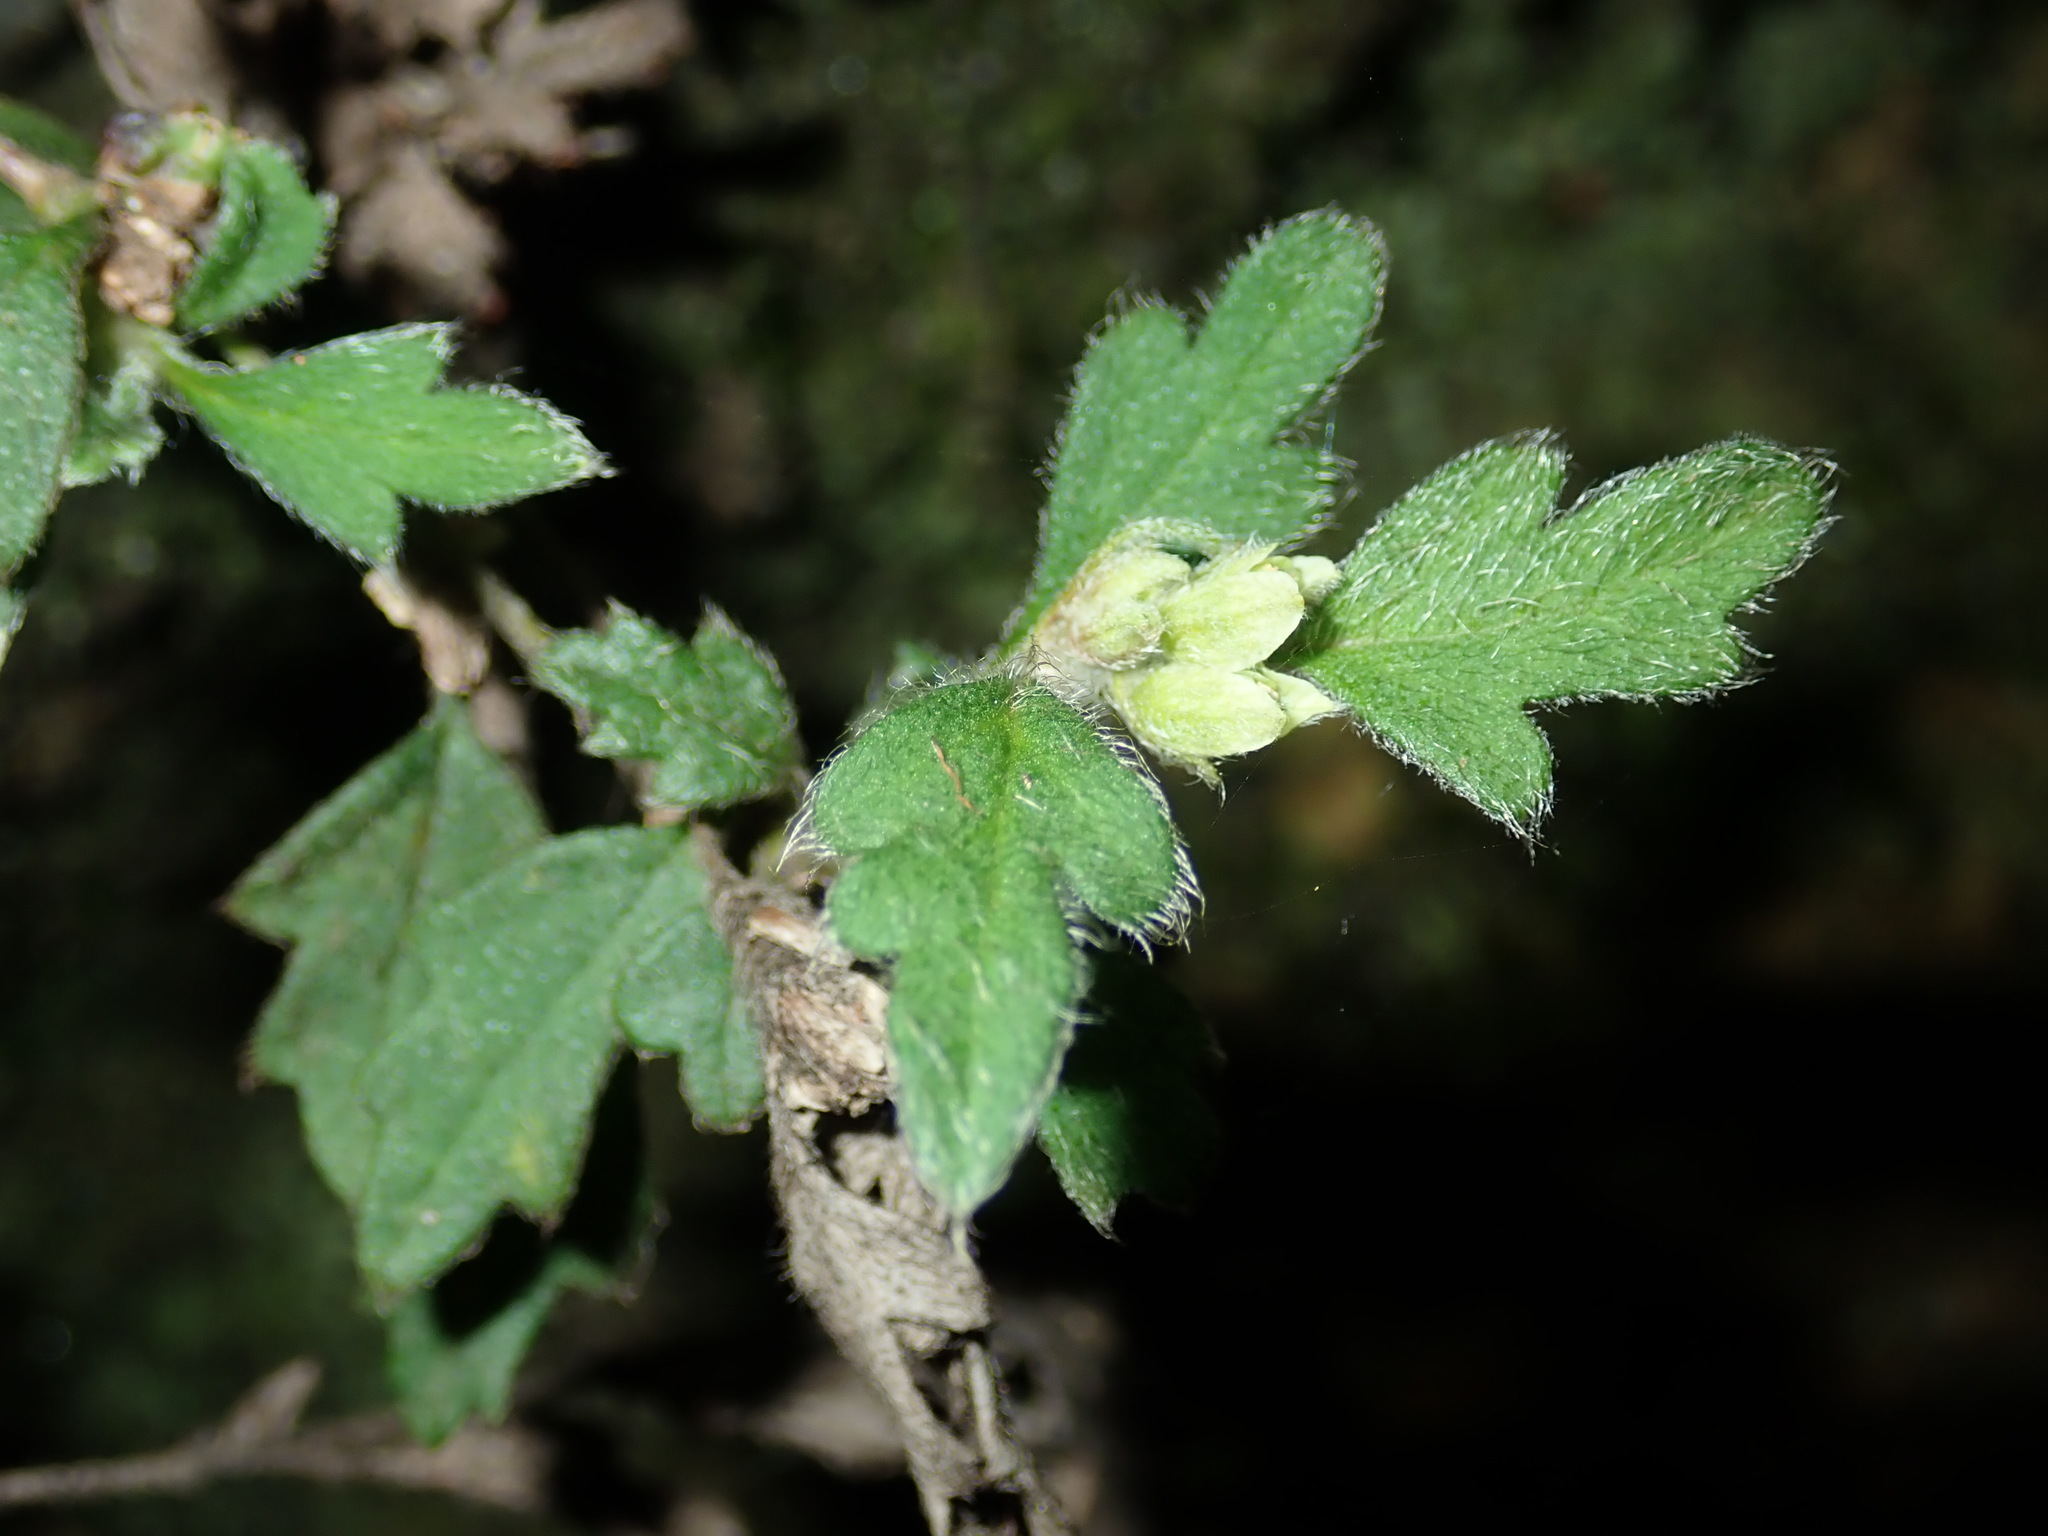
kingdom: Plantae
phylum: Tracheophyta
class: Magnoliopsida
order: Apiales
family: Apiaceae
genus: Xanthosia
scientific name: Xanthosia pilosa
